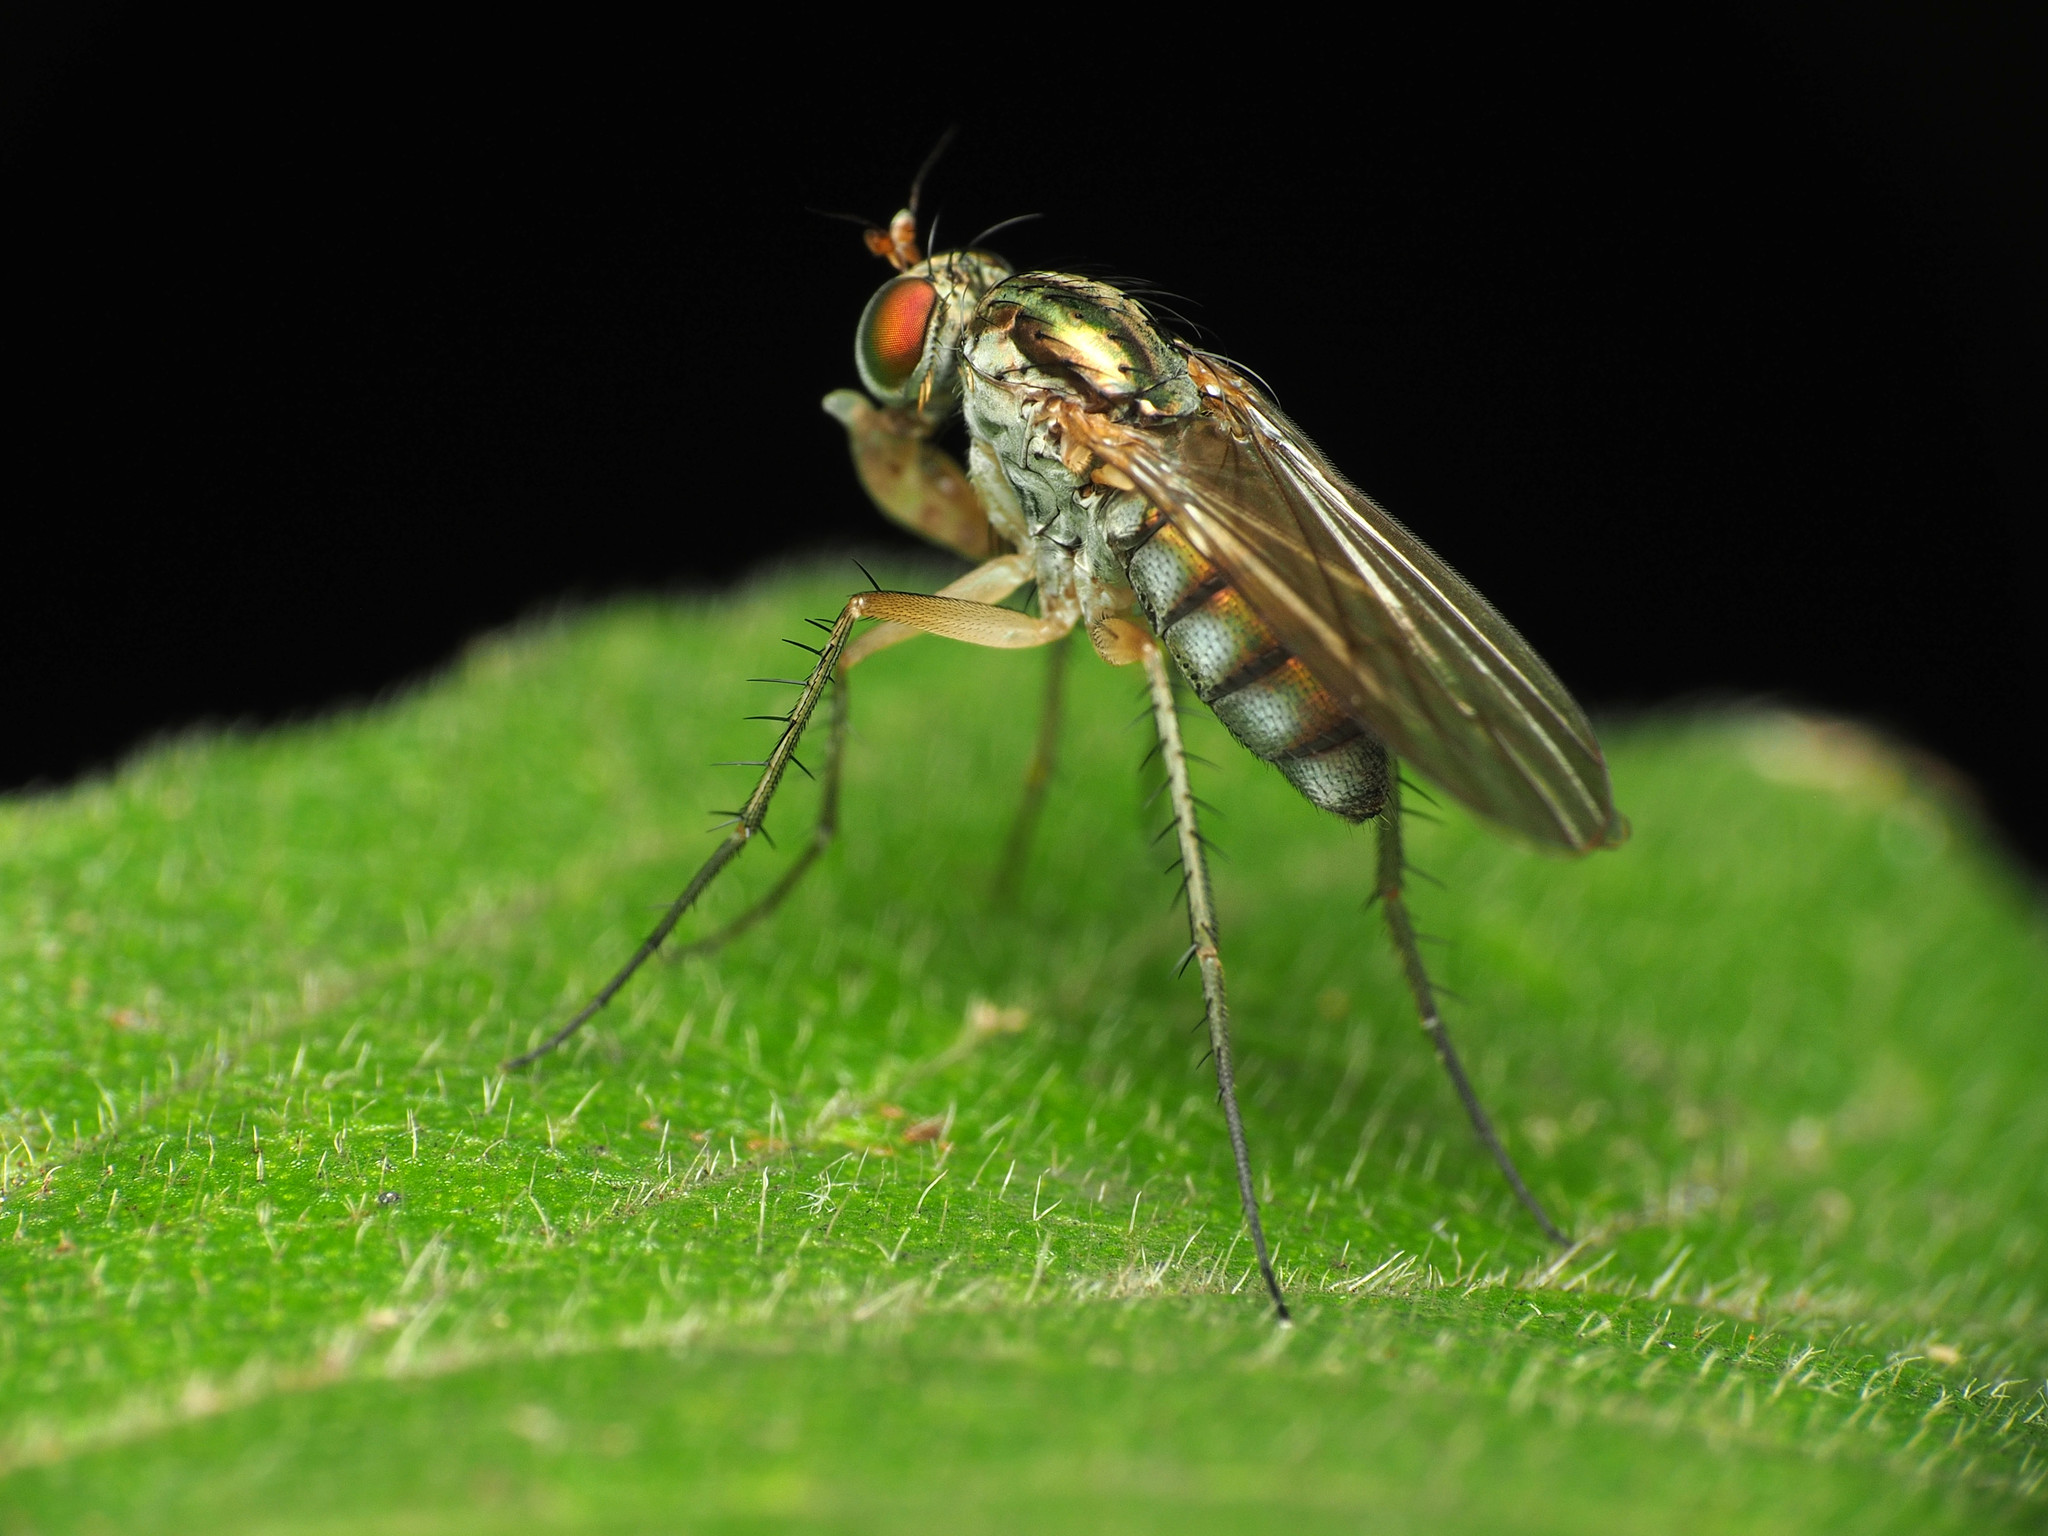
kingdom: Animalia
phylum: Arthropoda
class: Insecta
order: Diptera
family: Dolichopodidae
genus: Dolichopus
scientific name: Dolichopus longipennis
